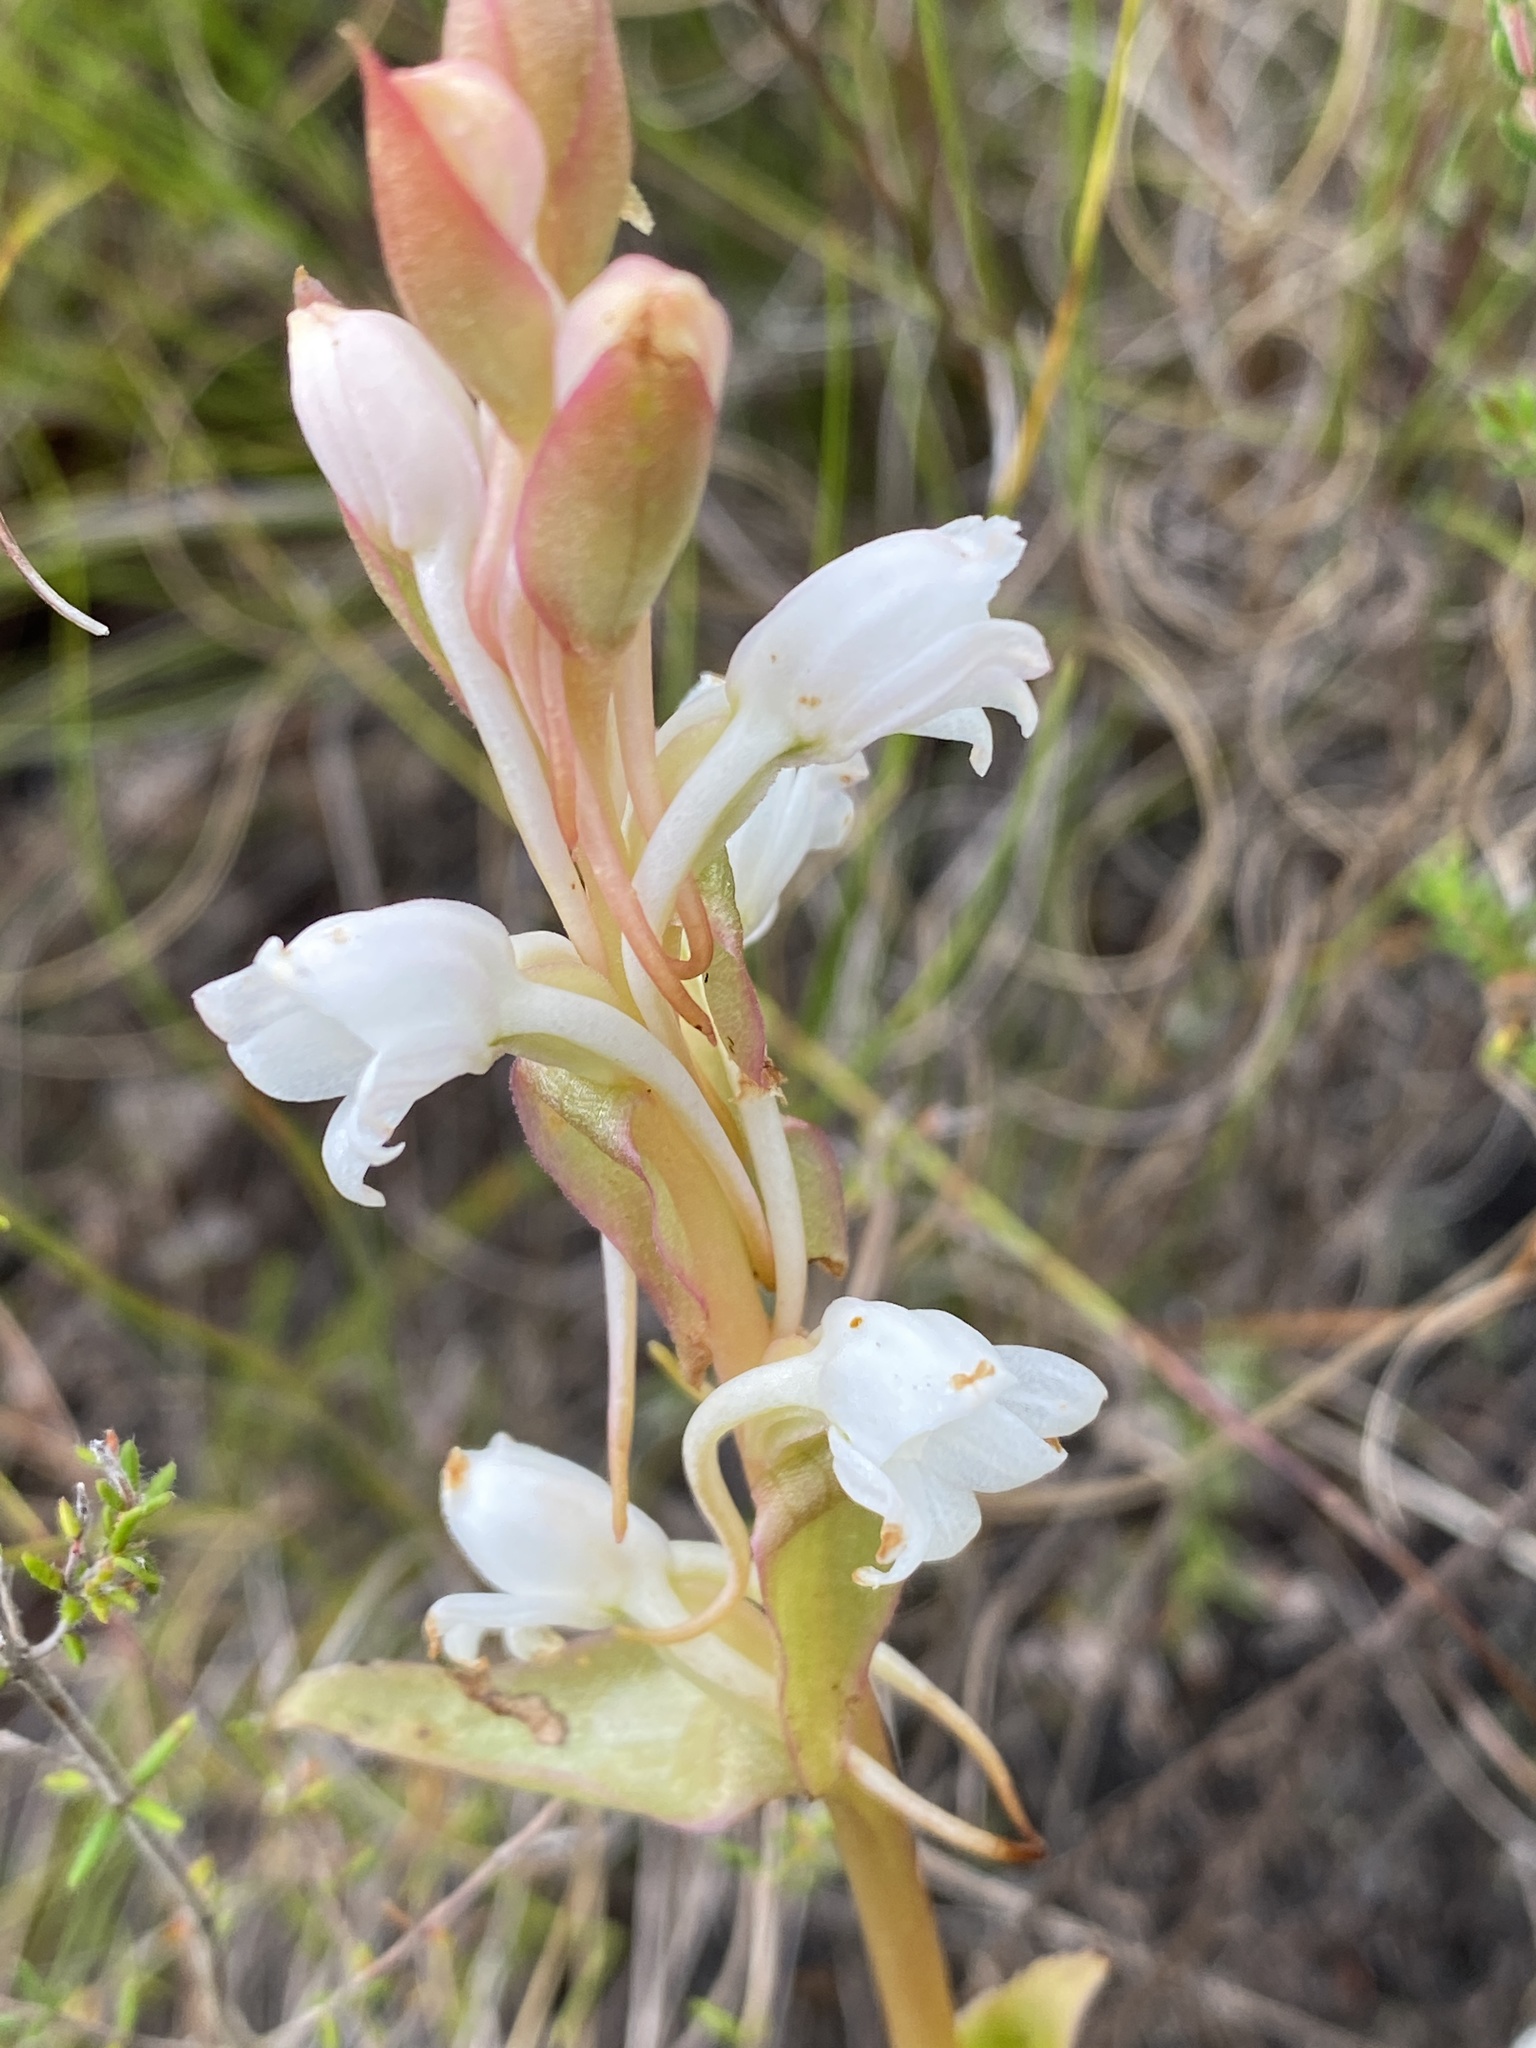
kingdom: Plantae
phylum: Tracheophyta
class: Liliopsida
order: Asparagales
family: Orchidaceae
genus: Satyrium
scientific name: Satyrium acuminatum
